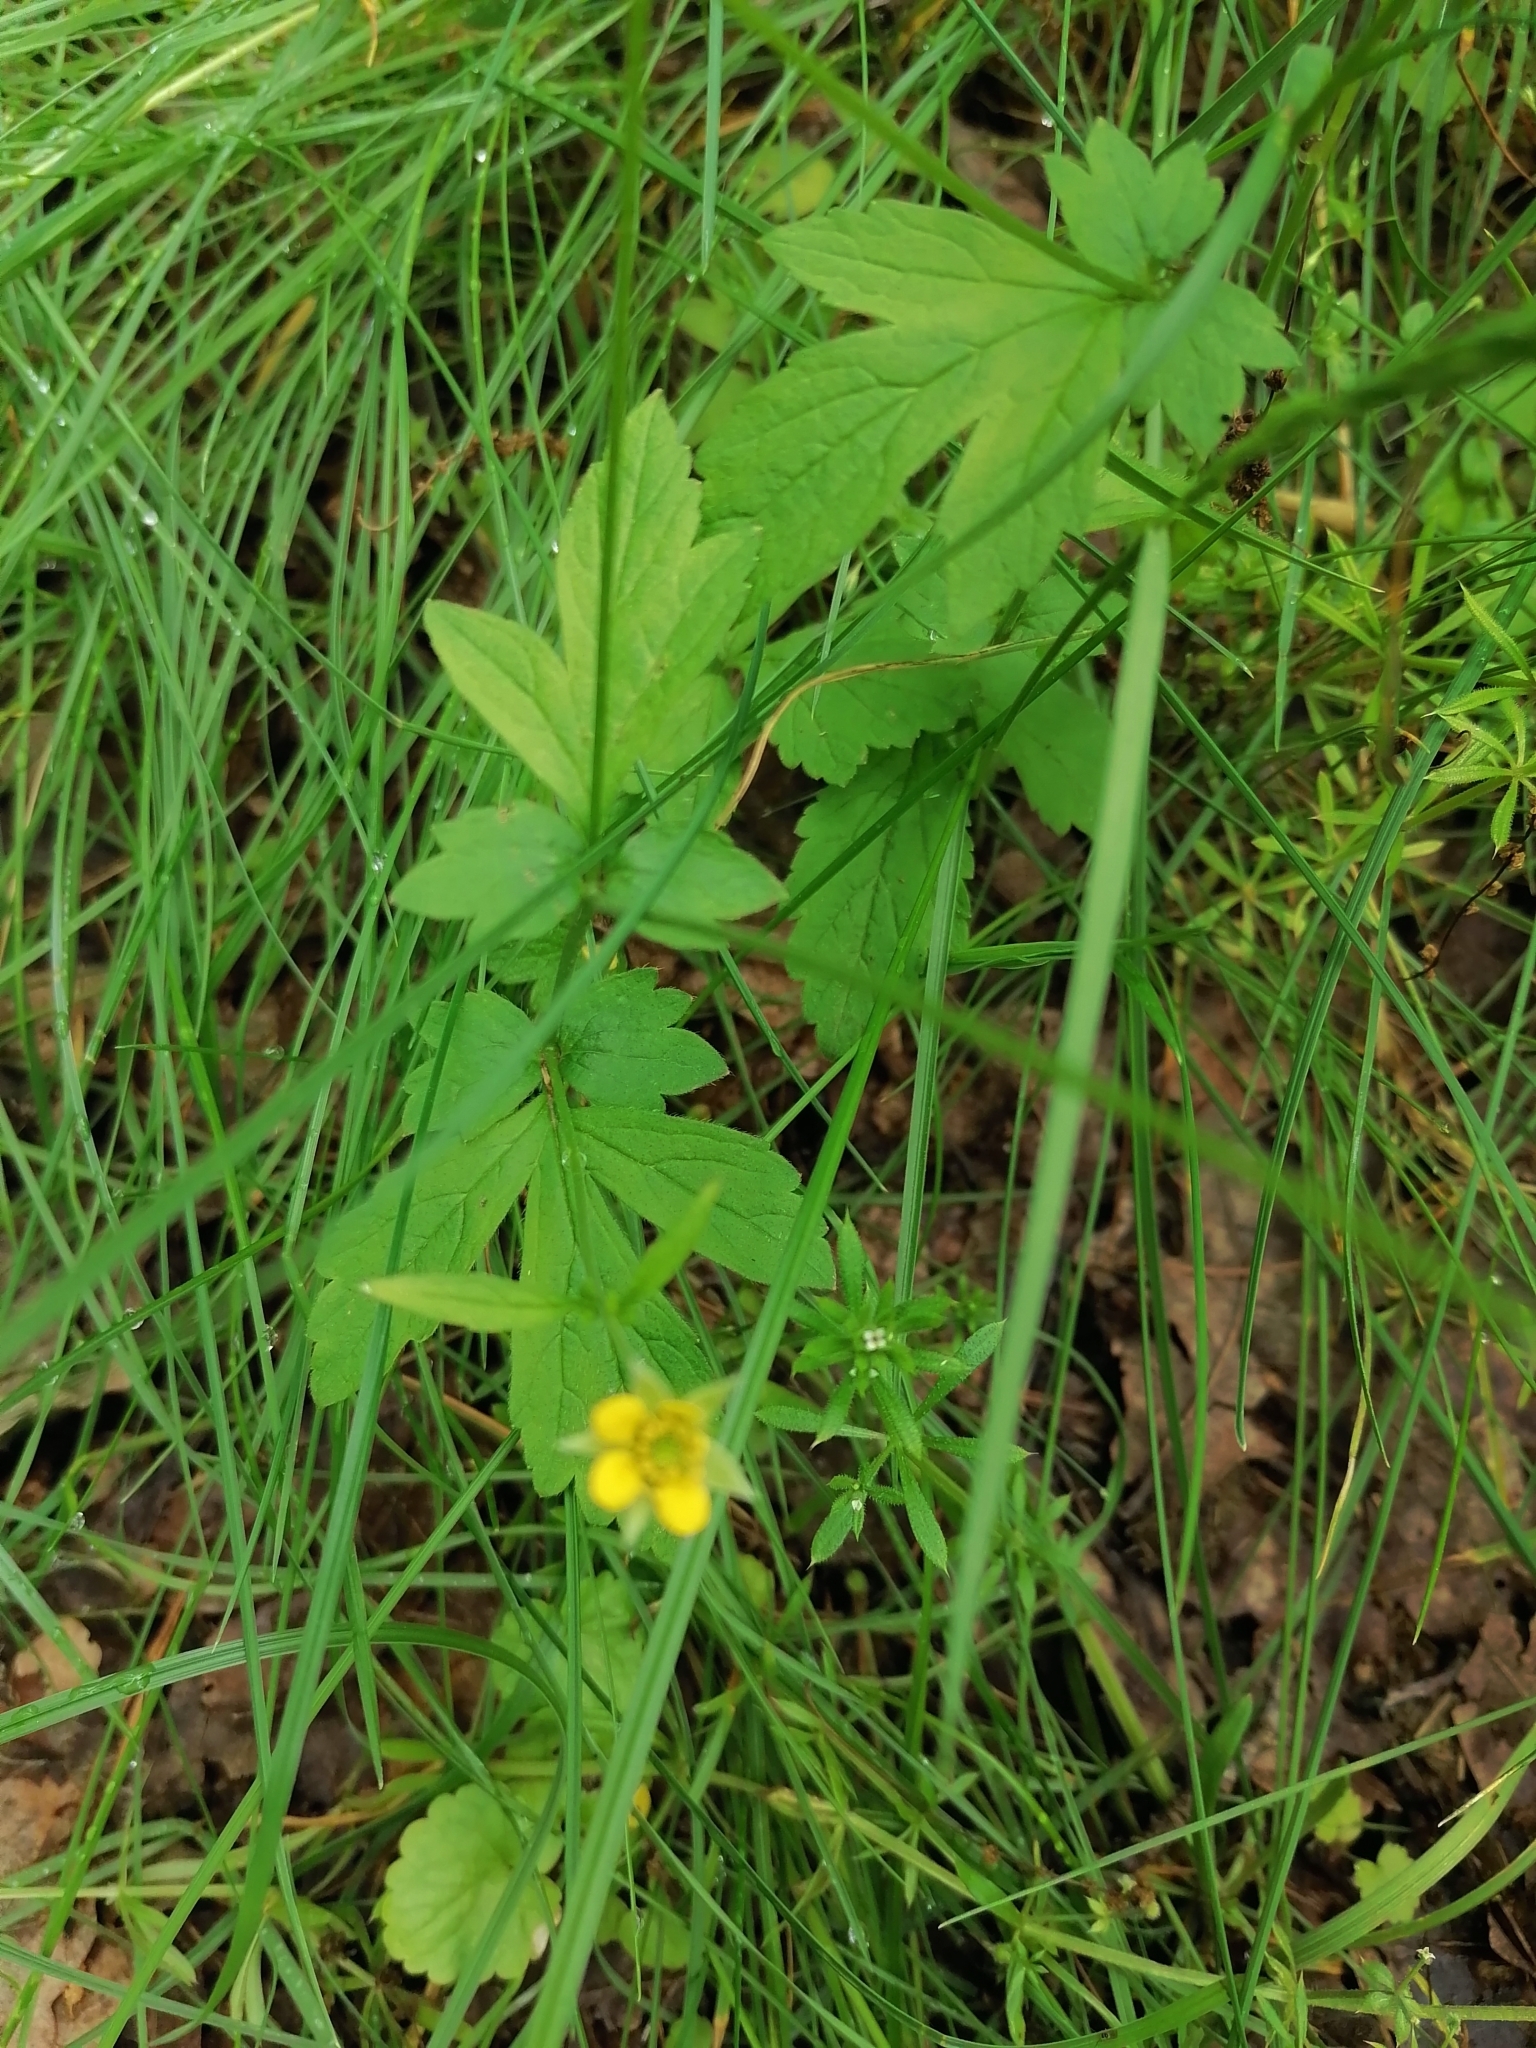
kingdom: Plantae
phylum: Tracheophyta
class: Magnoliopsida
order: Rosales
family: Rosaceae
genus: Geum
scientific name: Geum urbanum
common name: Wood avens
